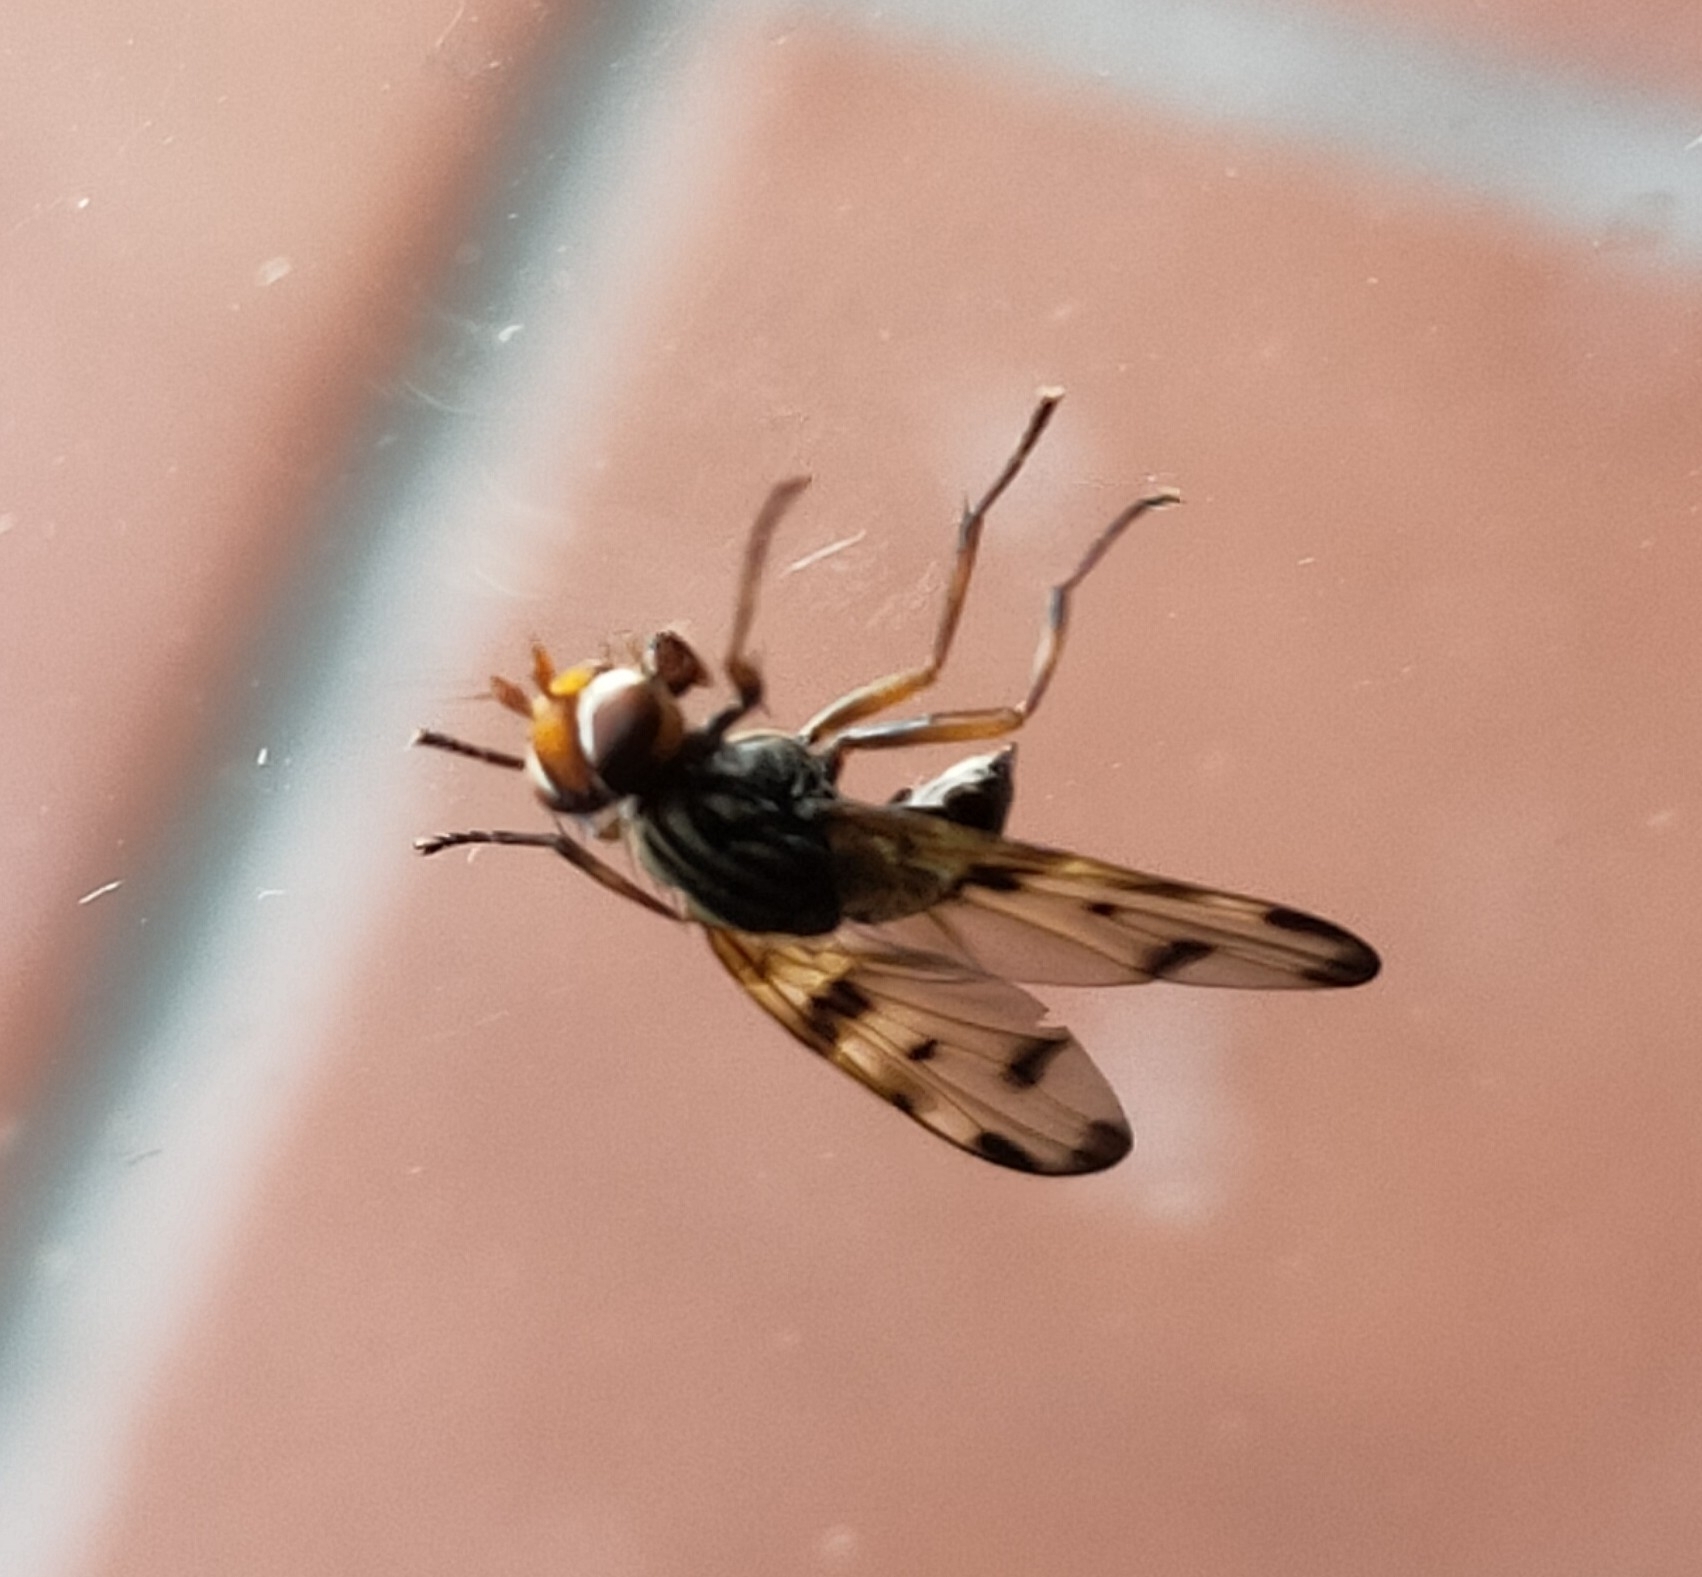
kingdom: Animalia
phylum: Arthropoda
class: Insecta
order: Diptera
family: Ulidiidae
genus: Otites
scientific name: Otites porcus
